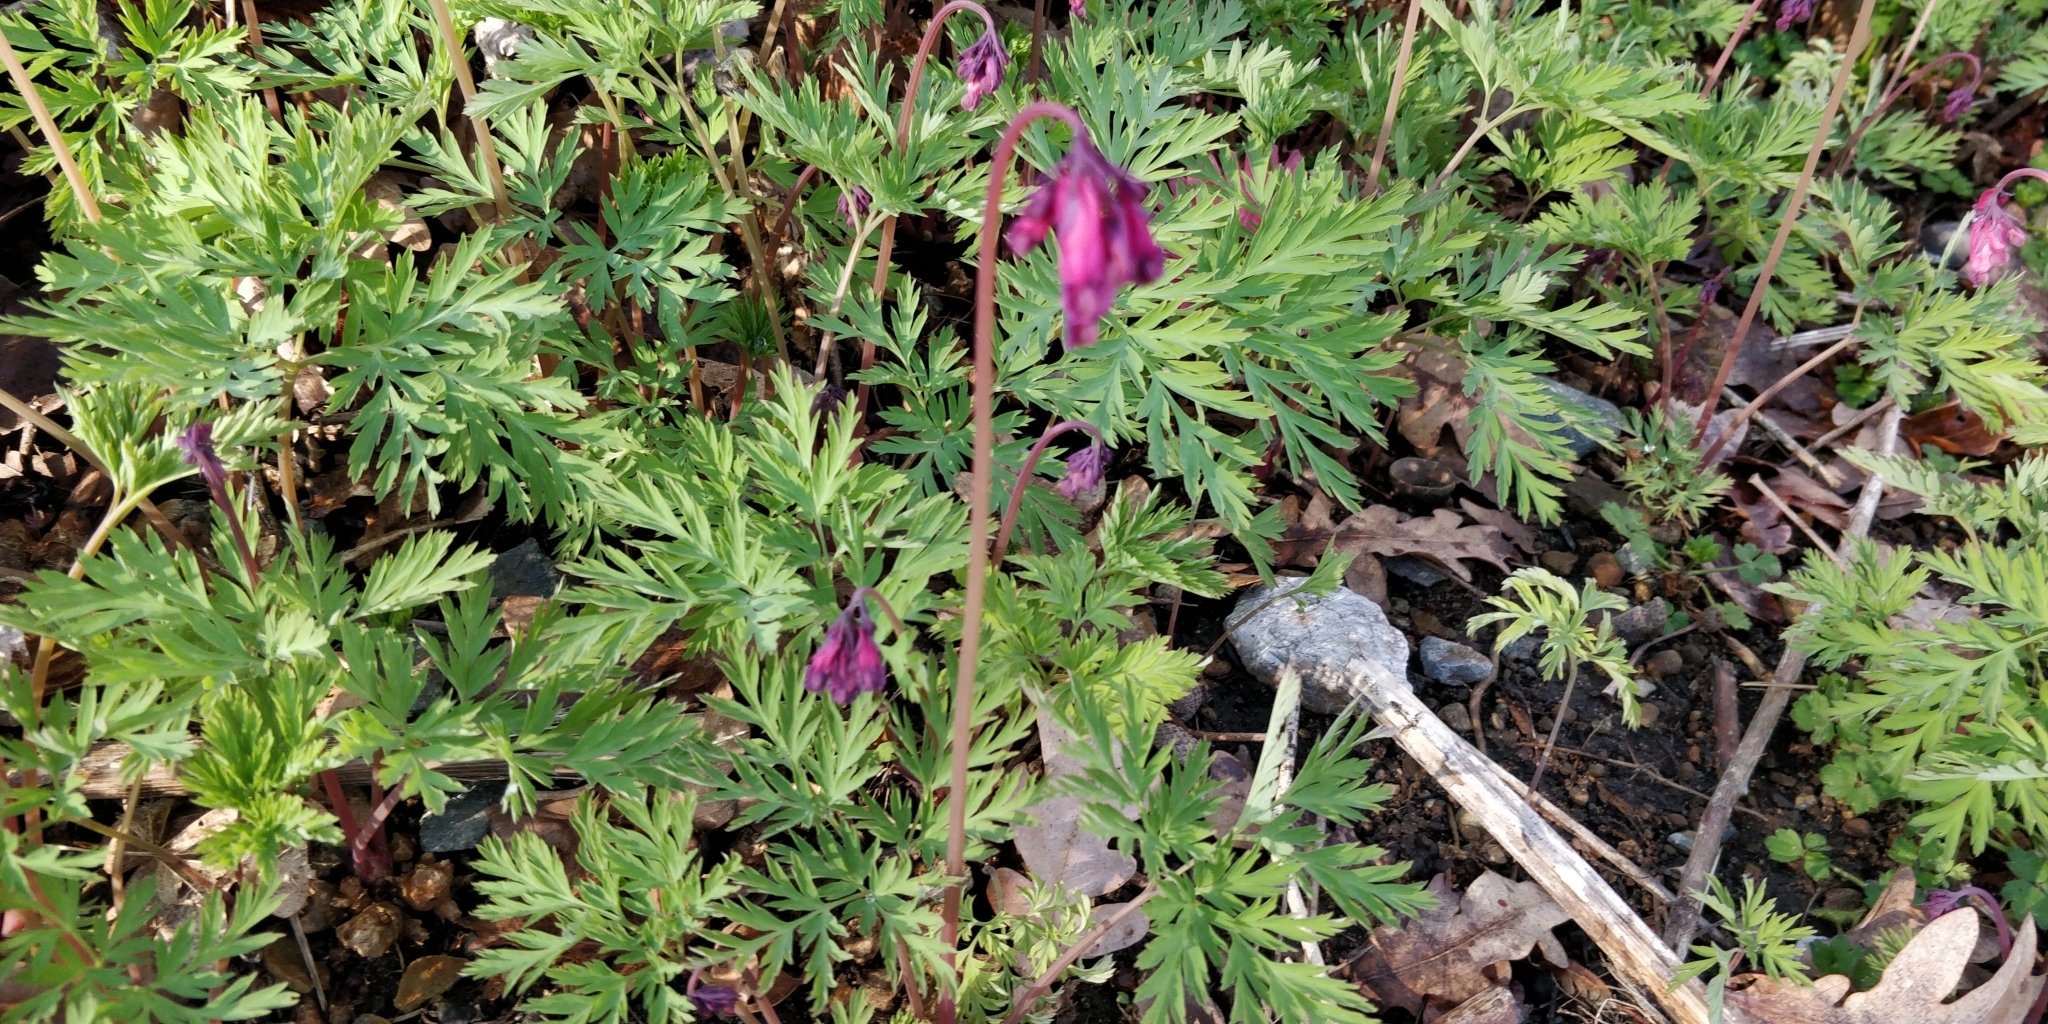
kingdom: Plantae
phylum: Tracheophyta
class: Magnoliopsida
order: Ranunculales
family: Papaveraceae
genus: Dicentra
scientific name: Dicentra formosa
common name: Bleeding-heart
